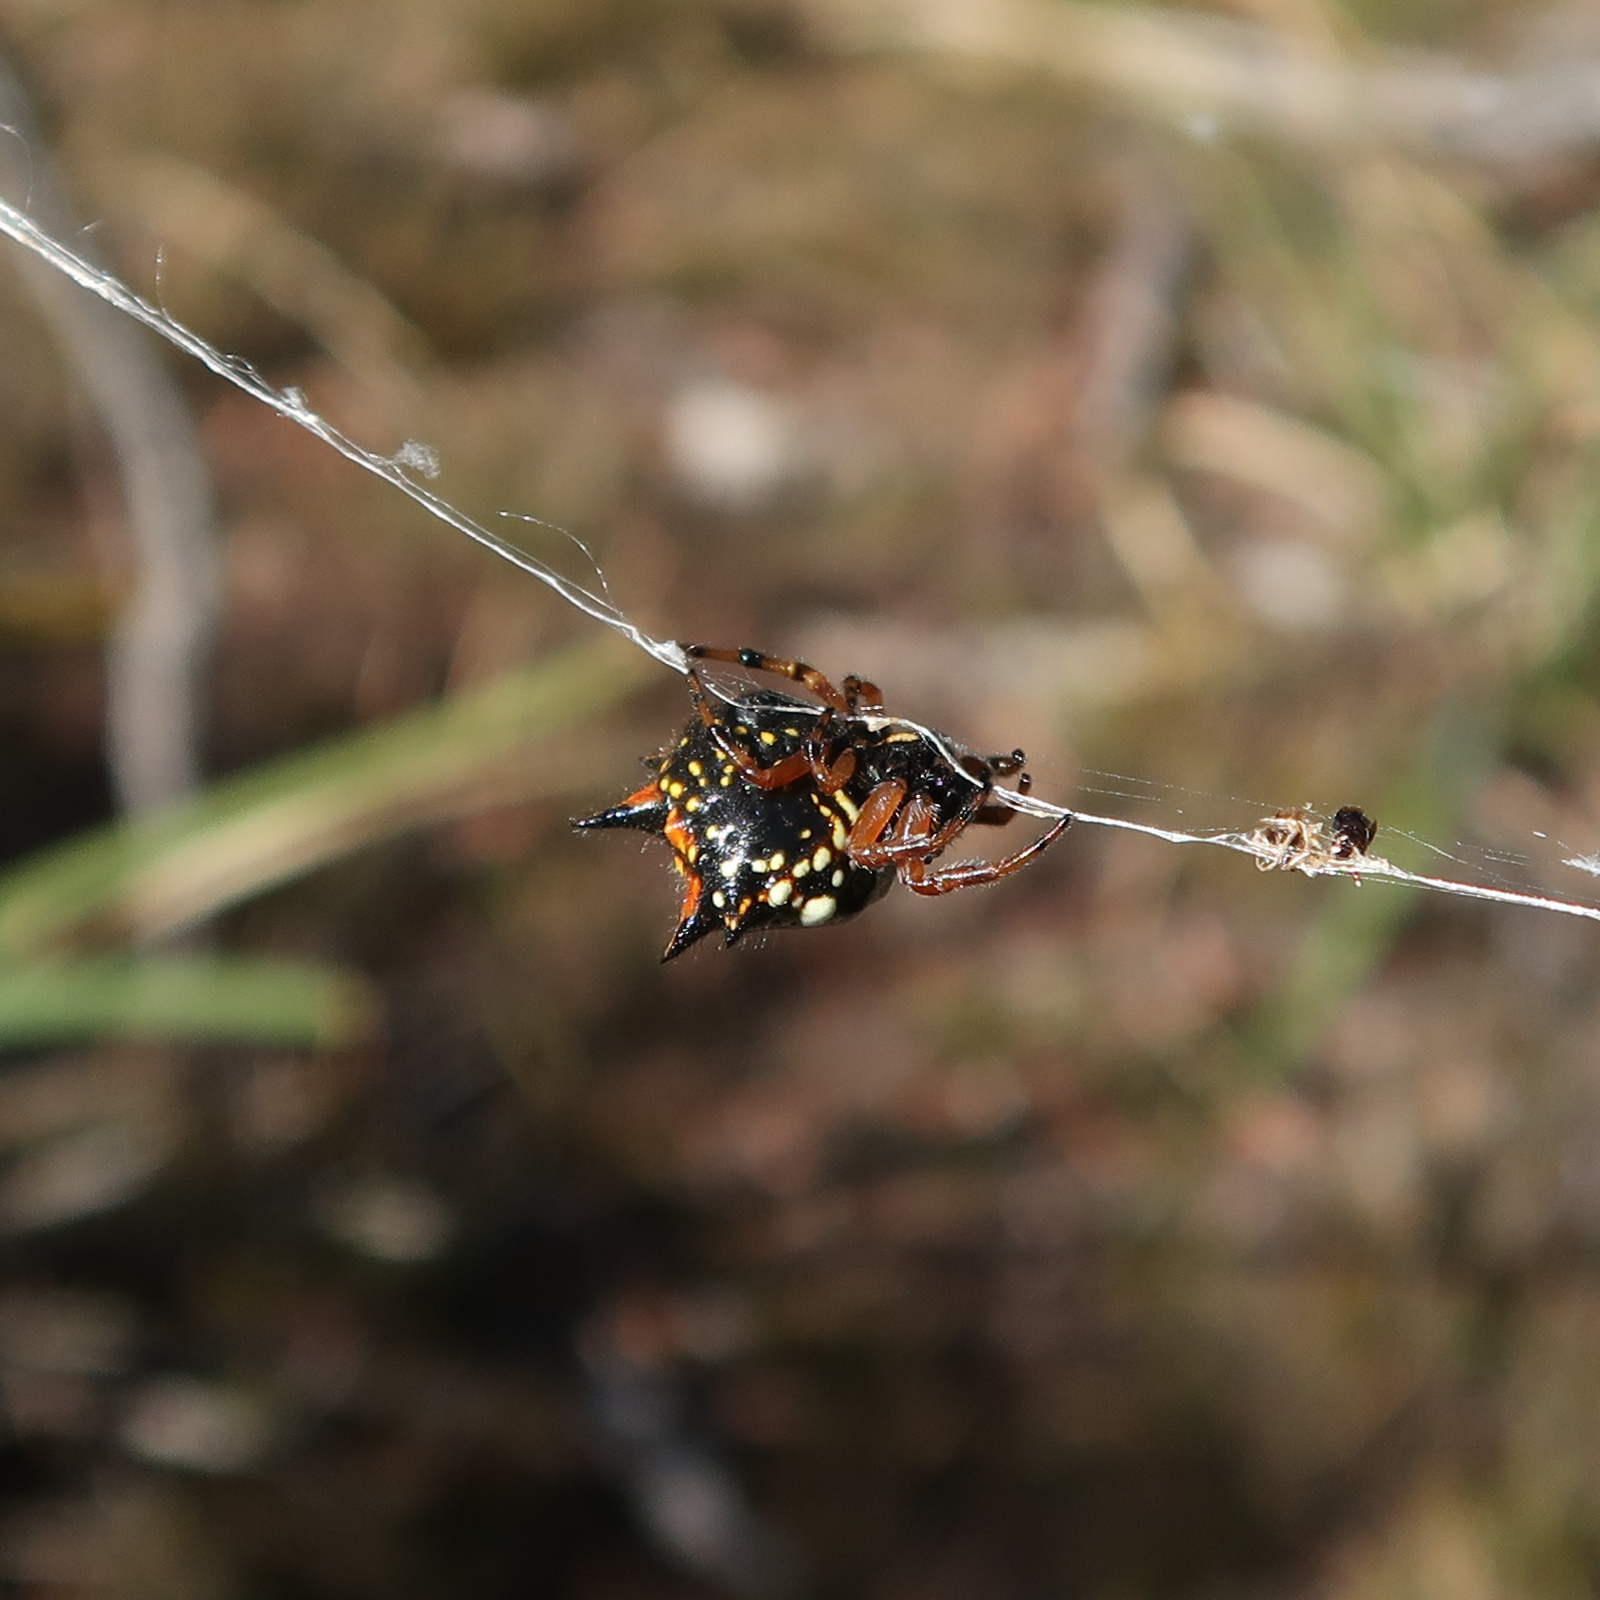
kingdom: Animalia
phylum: Arthropoda
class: Arachnida
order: Araneae
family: Araneidae
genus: Austracantha
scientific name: Austracantha minax
